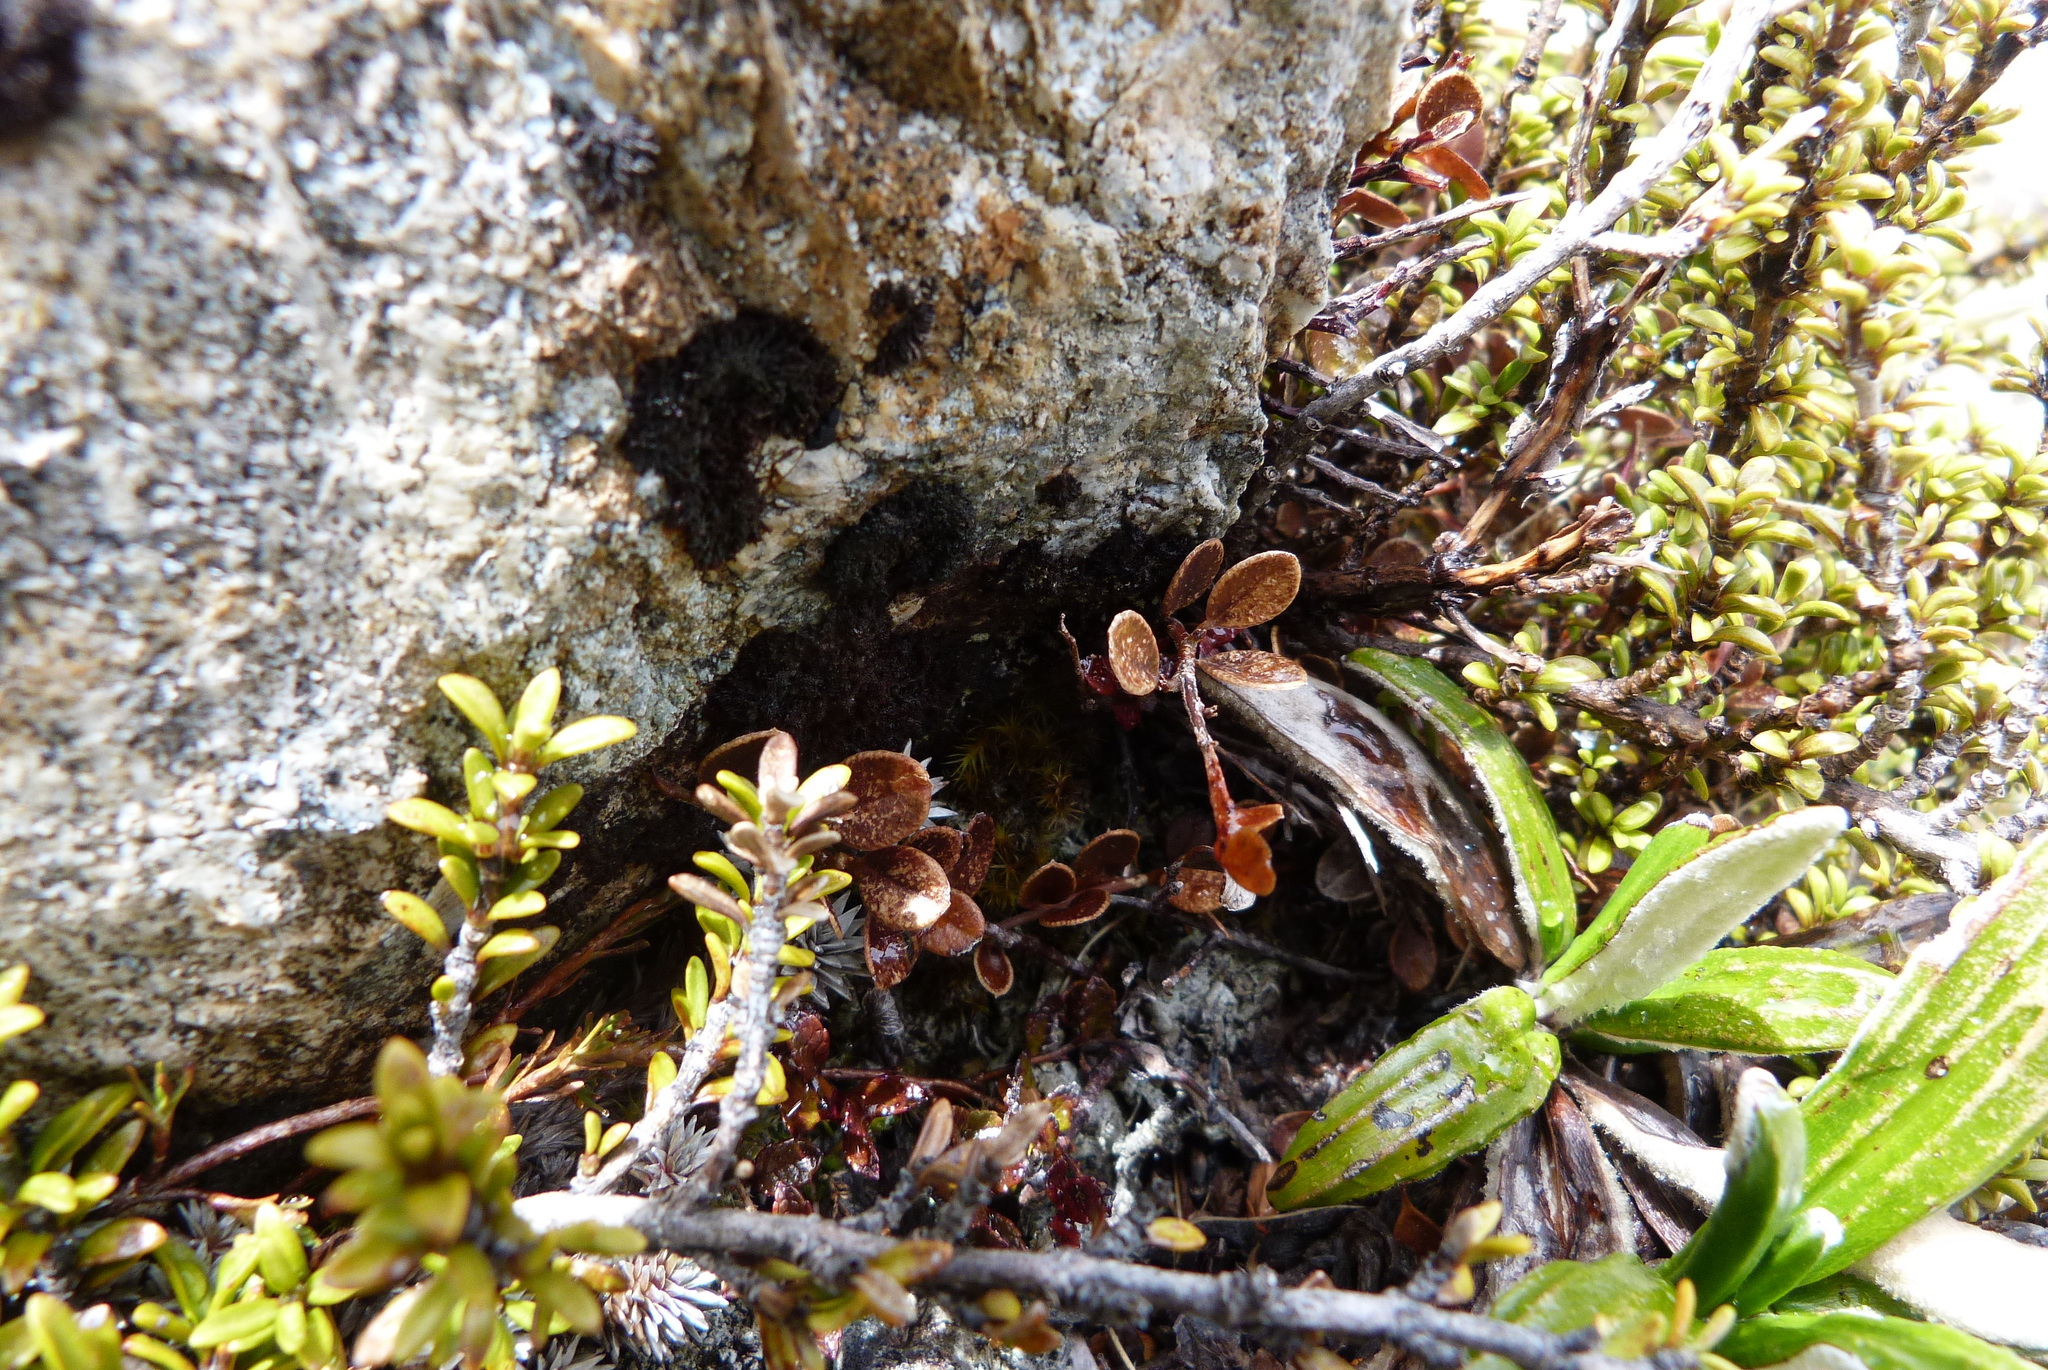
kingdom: Plantae
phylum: Tracheophyta
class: Magnoliopsida
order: Ericales
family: Primulaceae
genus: Myrsine
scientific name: Myrsine nummularia
